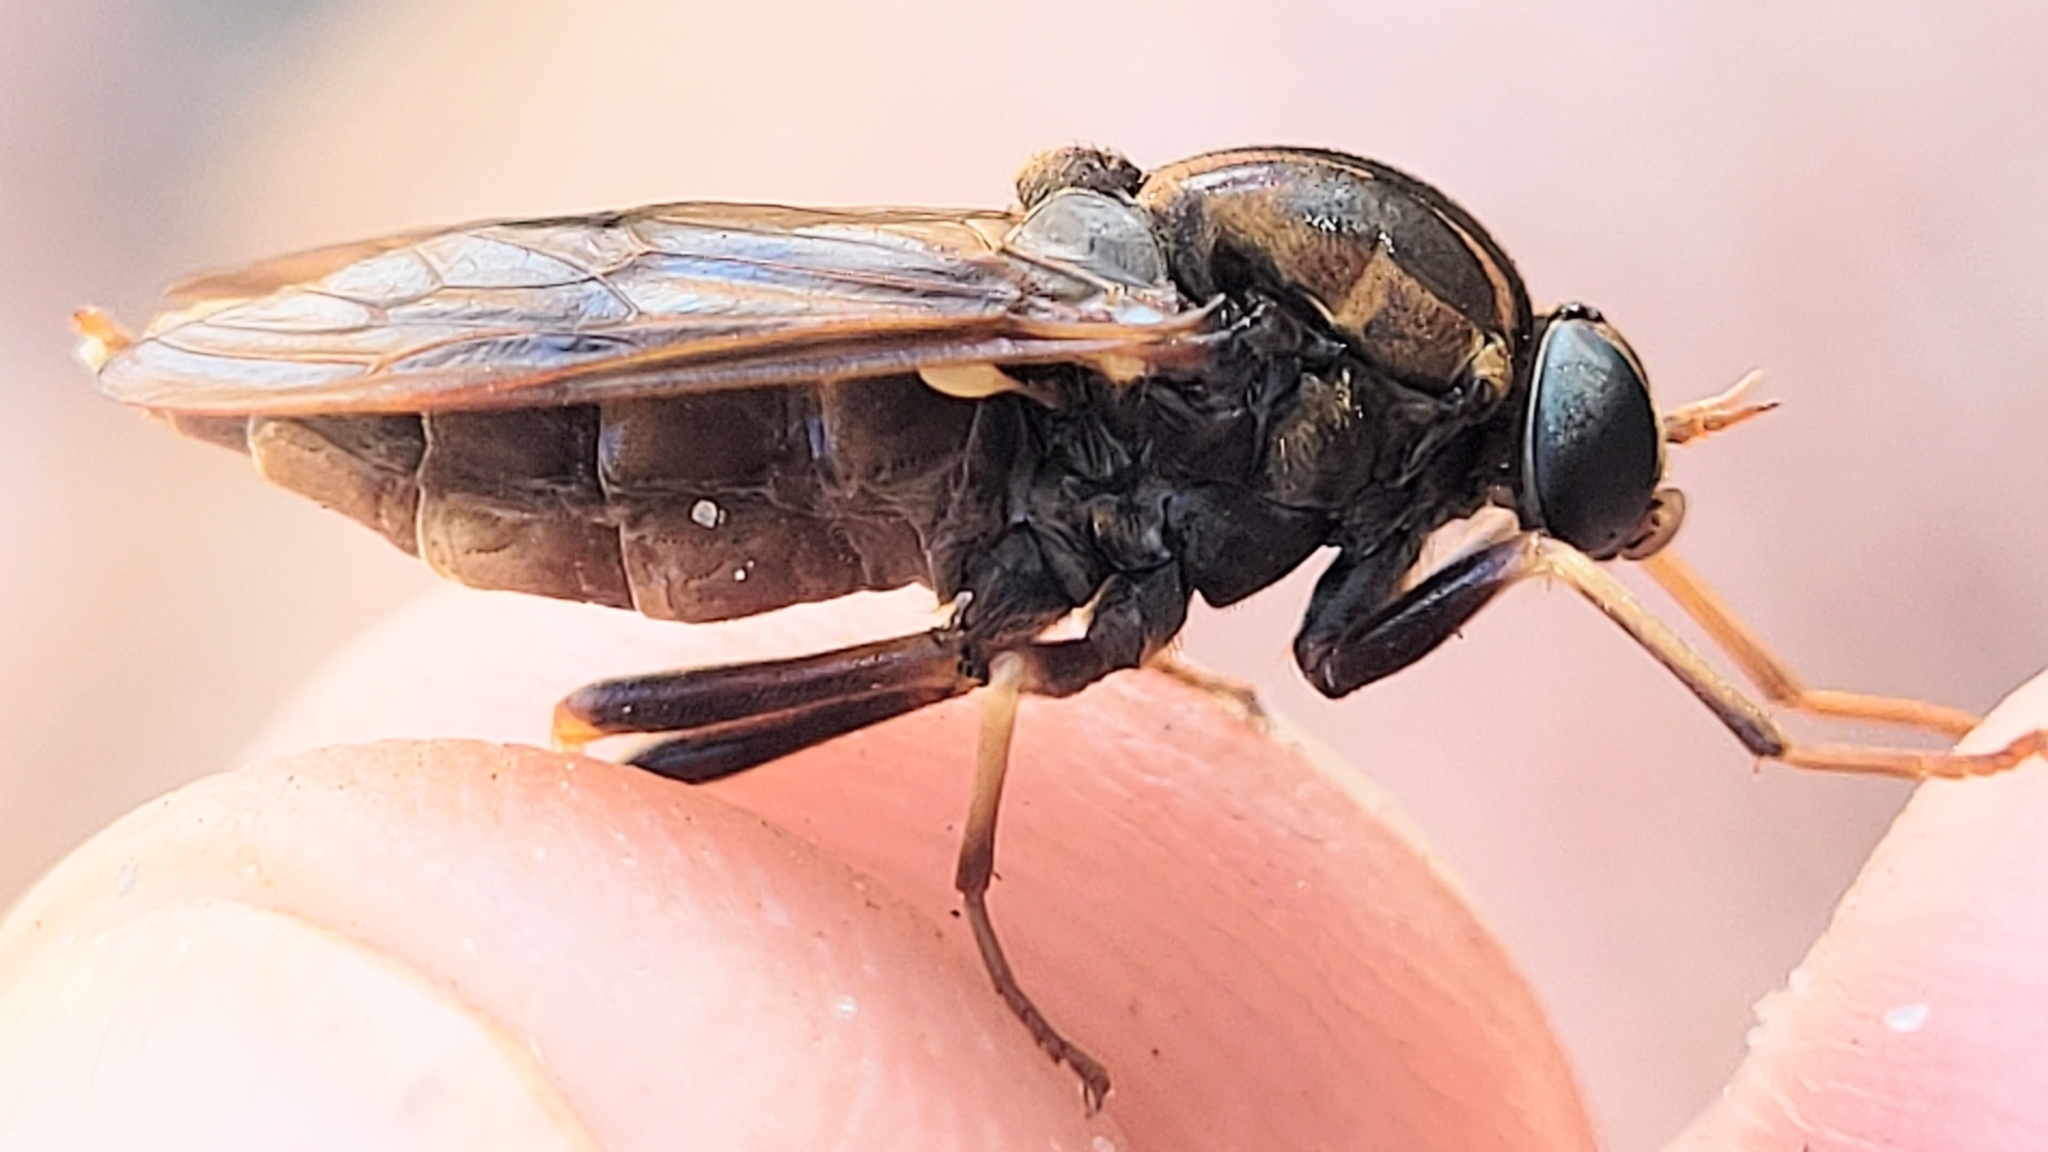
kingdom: Animalia
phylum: Arthropoda
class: Insecta
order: Diptera
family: Xylophagidae
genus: Arthropeas
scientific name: Arthropeas magna
